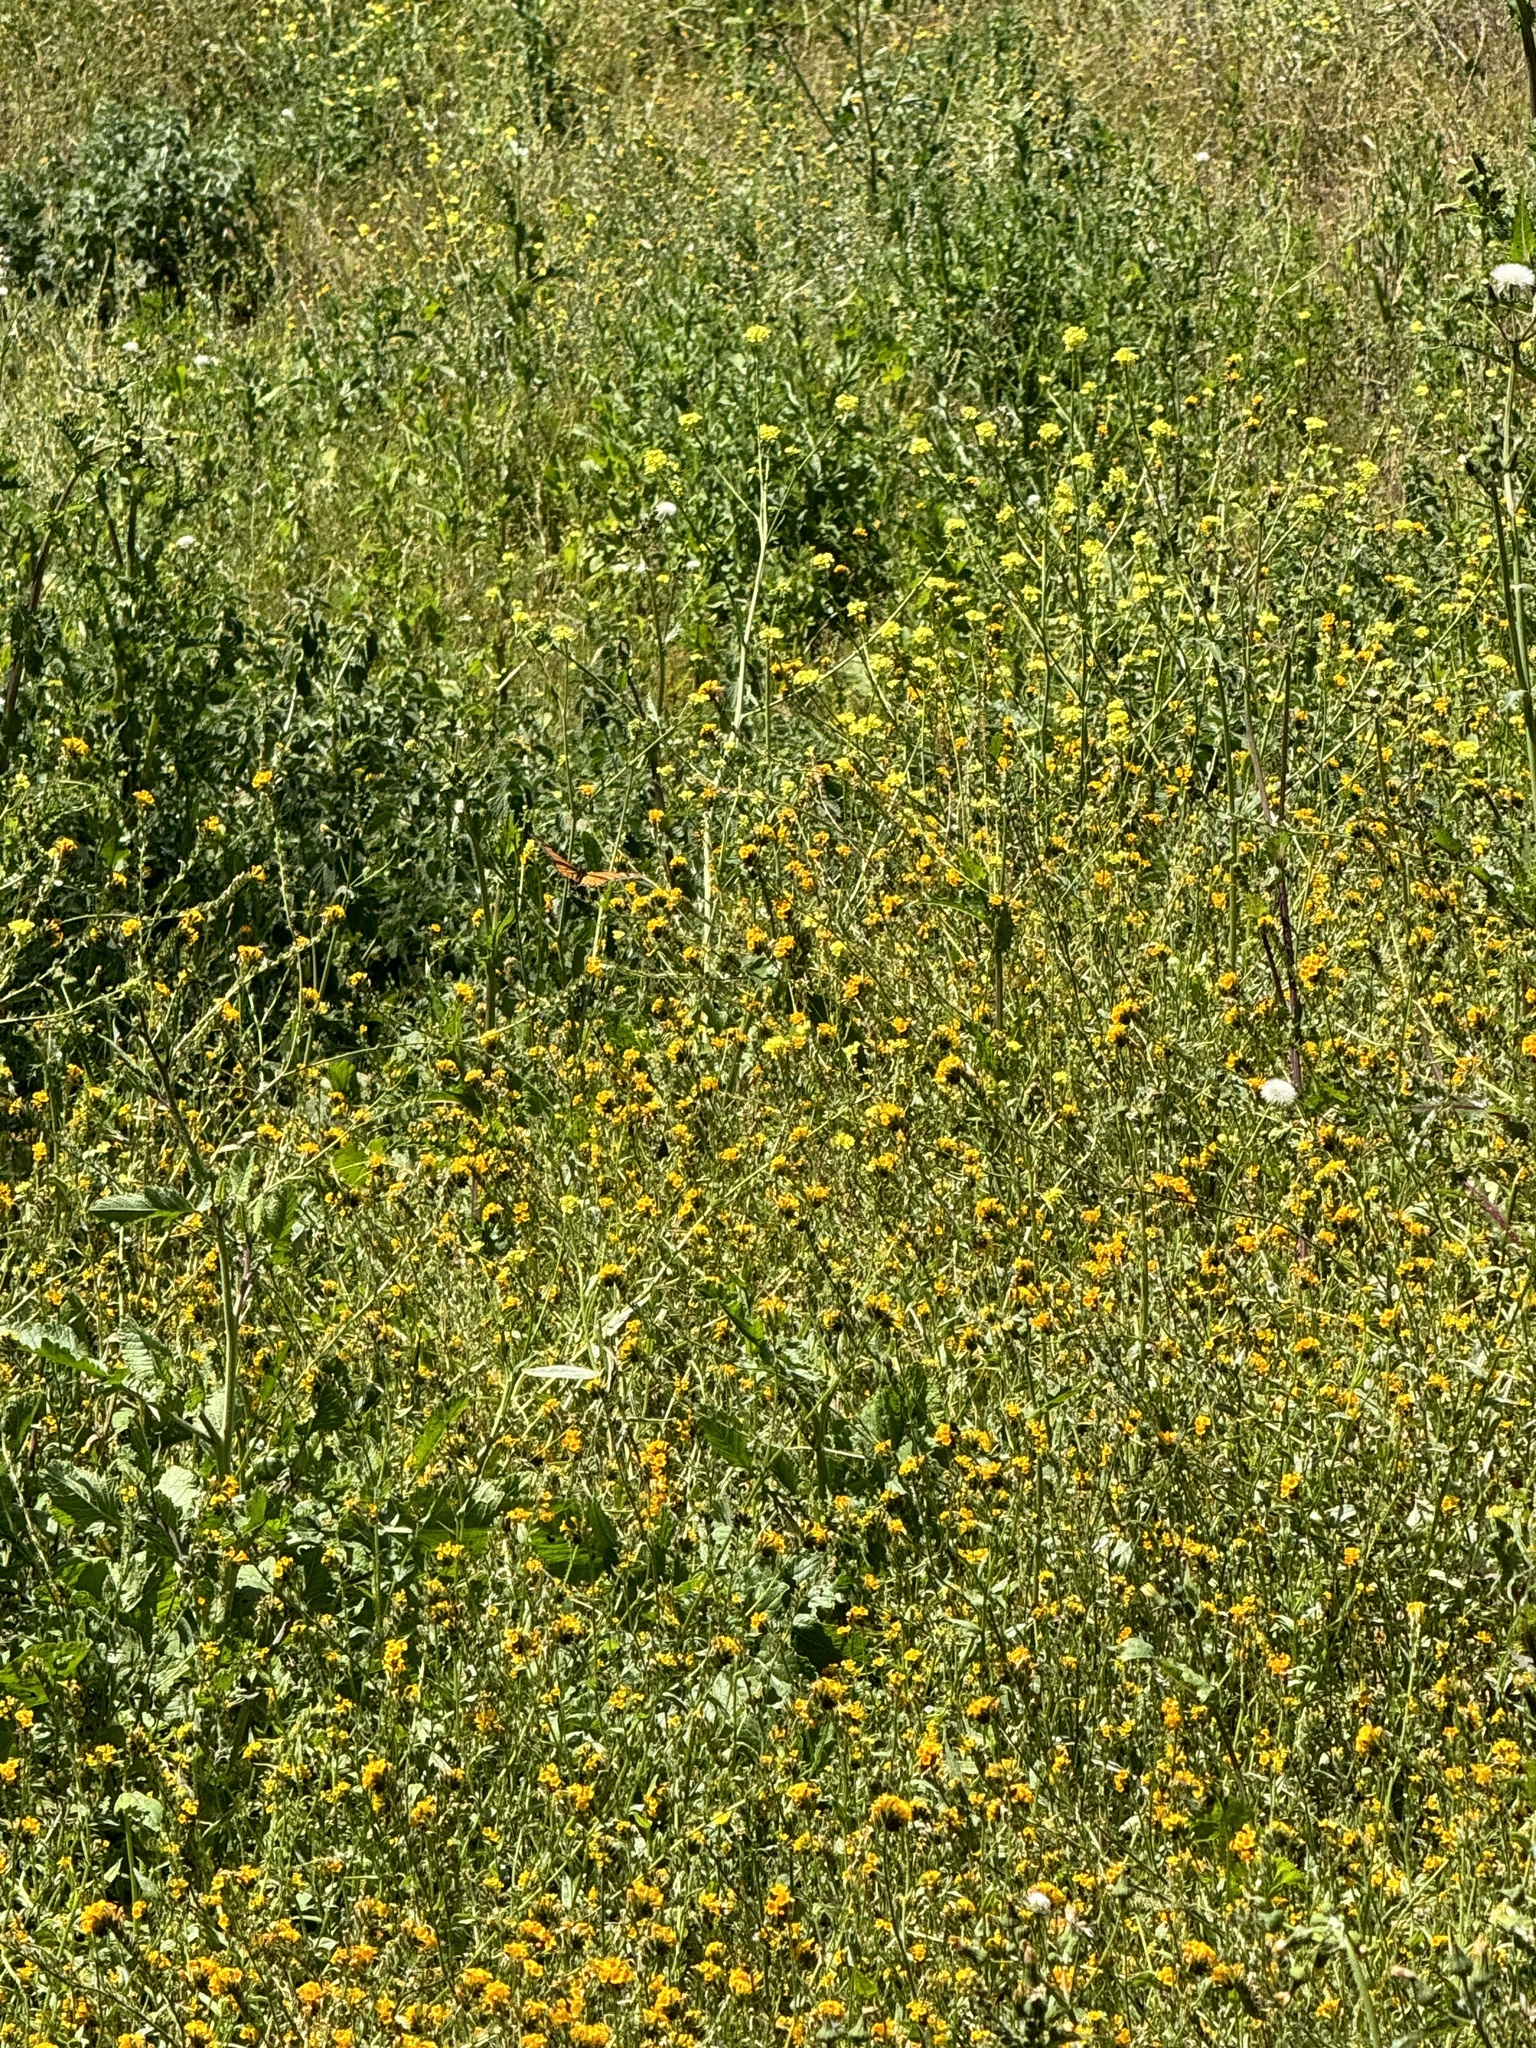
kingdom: Animalia
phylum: Arthropoda
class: Insecta
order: Lepidoptera
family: Nymphalidae
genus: Danaus
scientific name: Danaus plexippus
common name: Monarch
